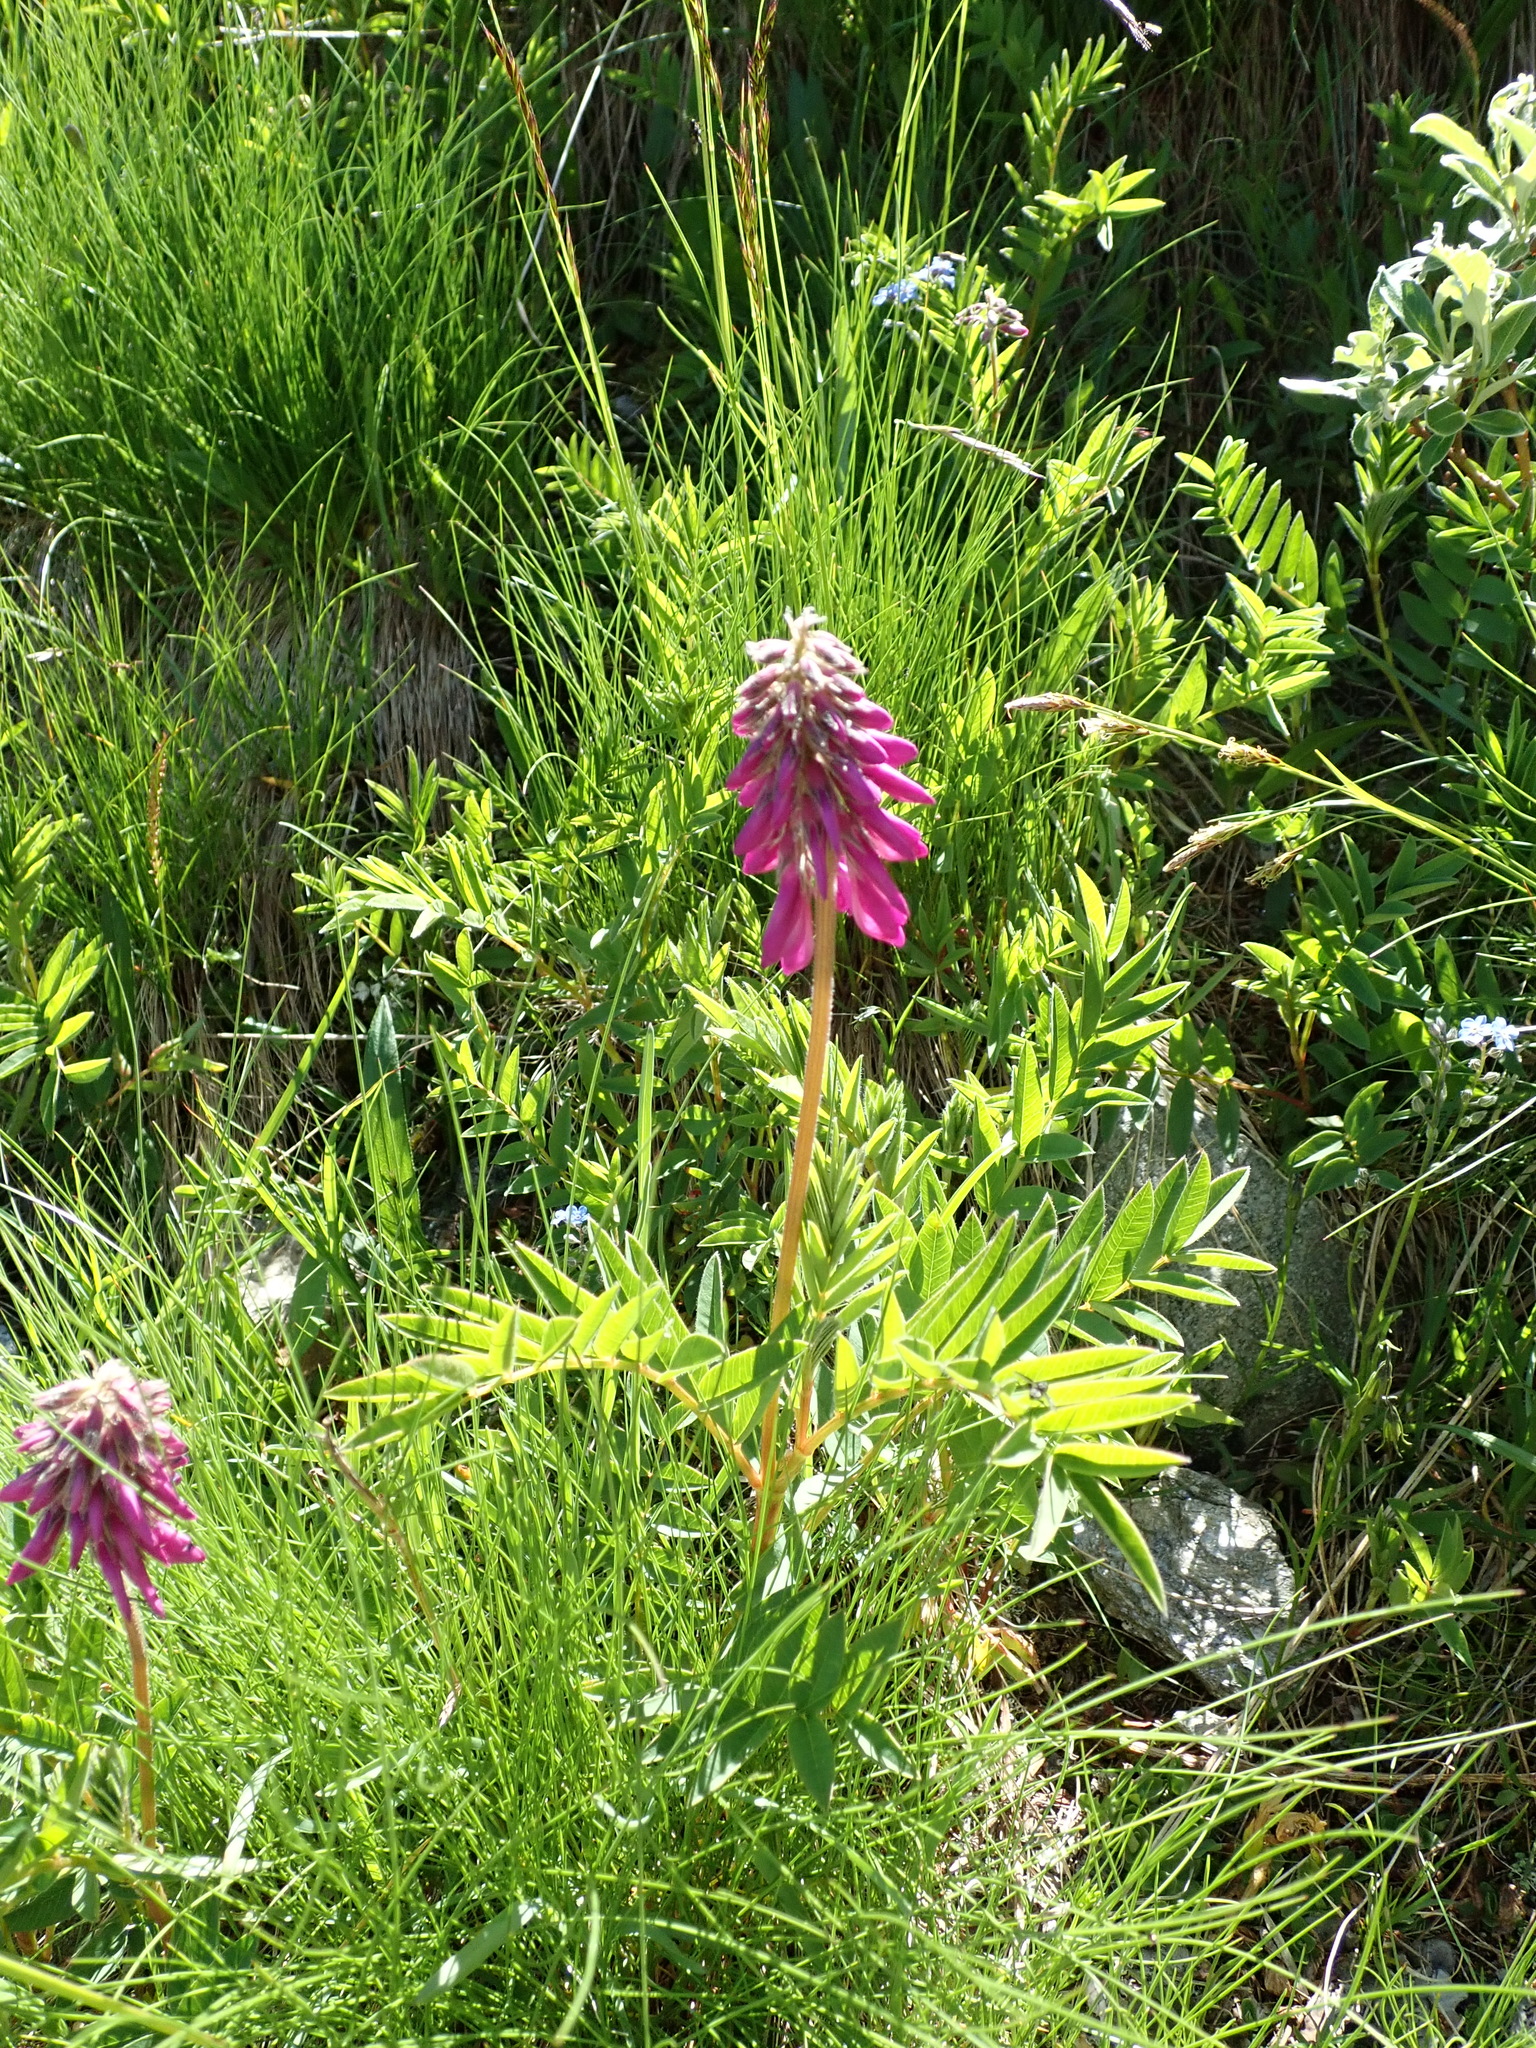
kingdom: Plantae
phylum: Tracheophyta
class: Magnoliopsida
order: Fabales
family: Fabaceae
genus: Hedysarum
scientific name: Hedysarum hedysaroides
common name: Alpine french-honeysuckle
